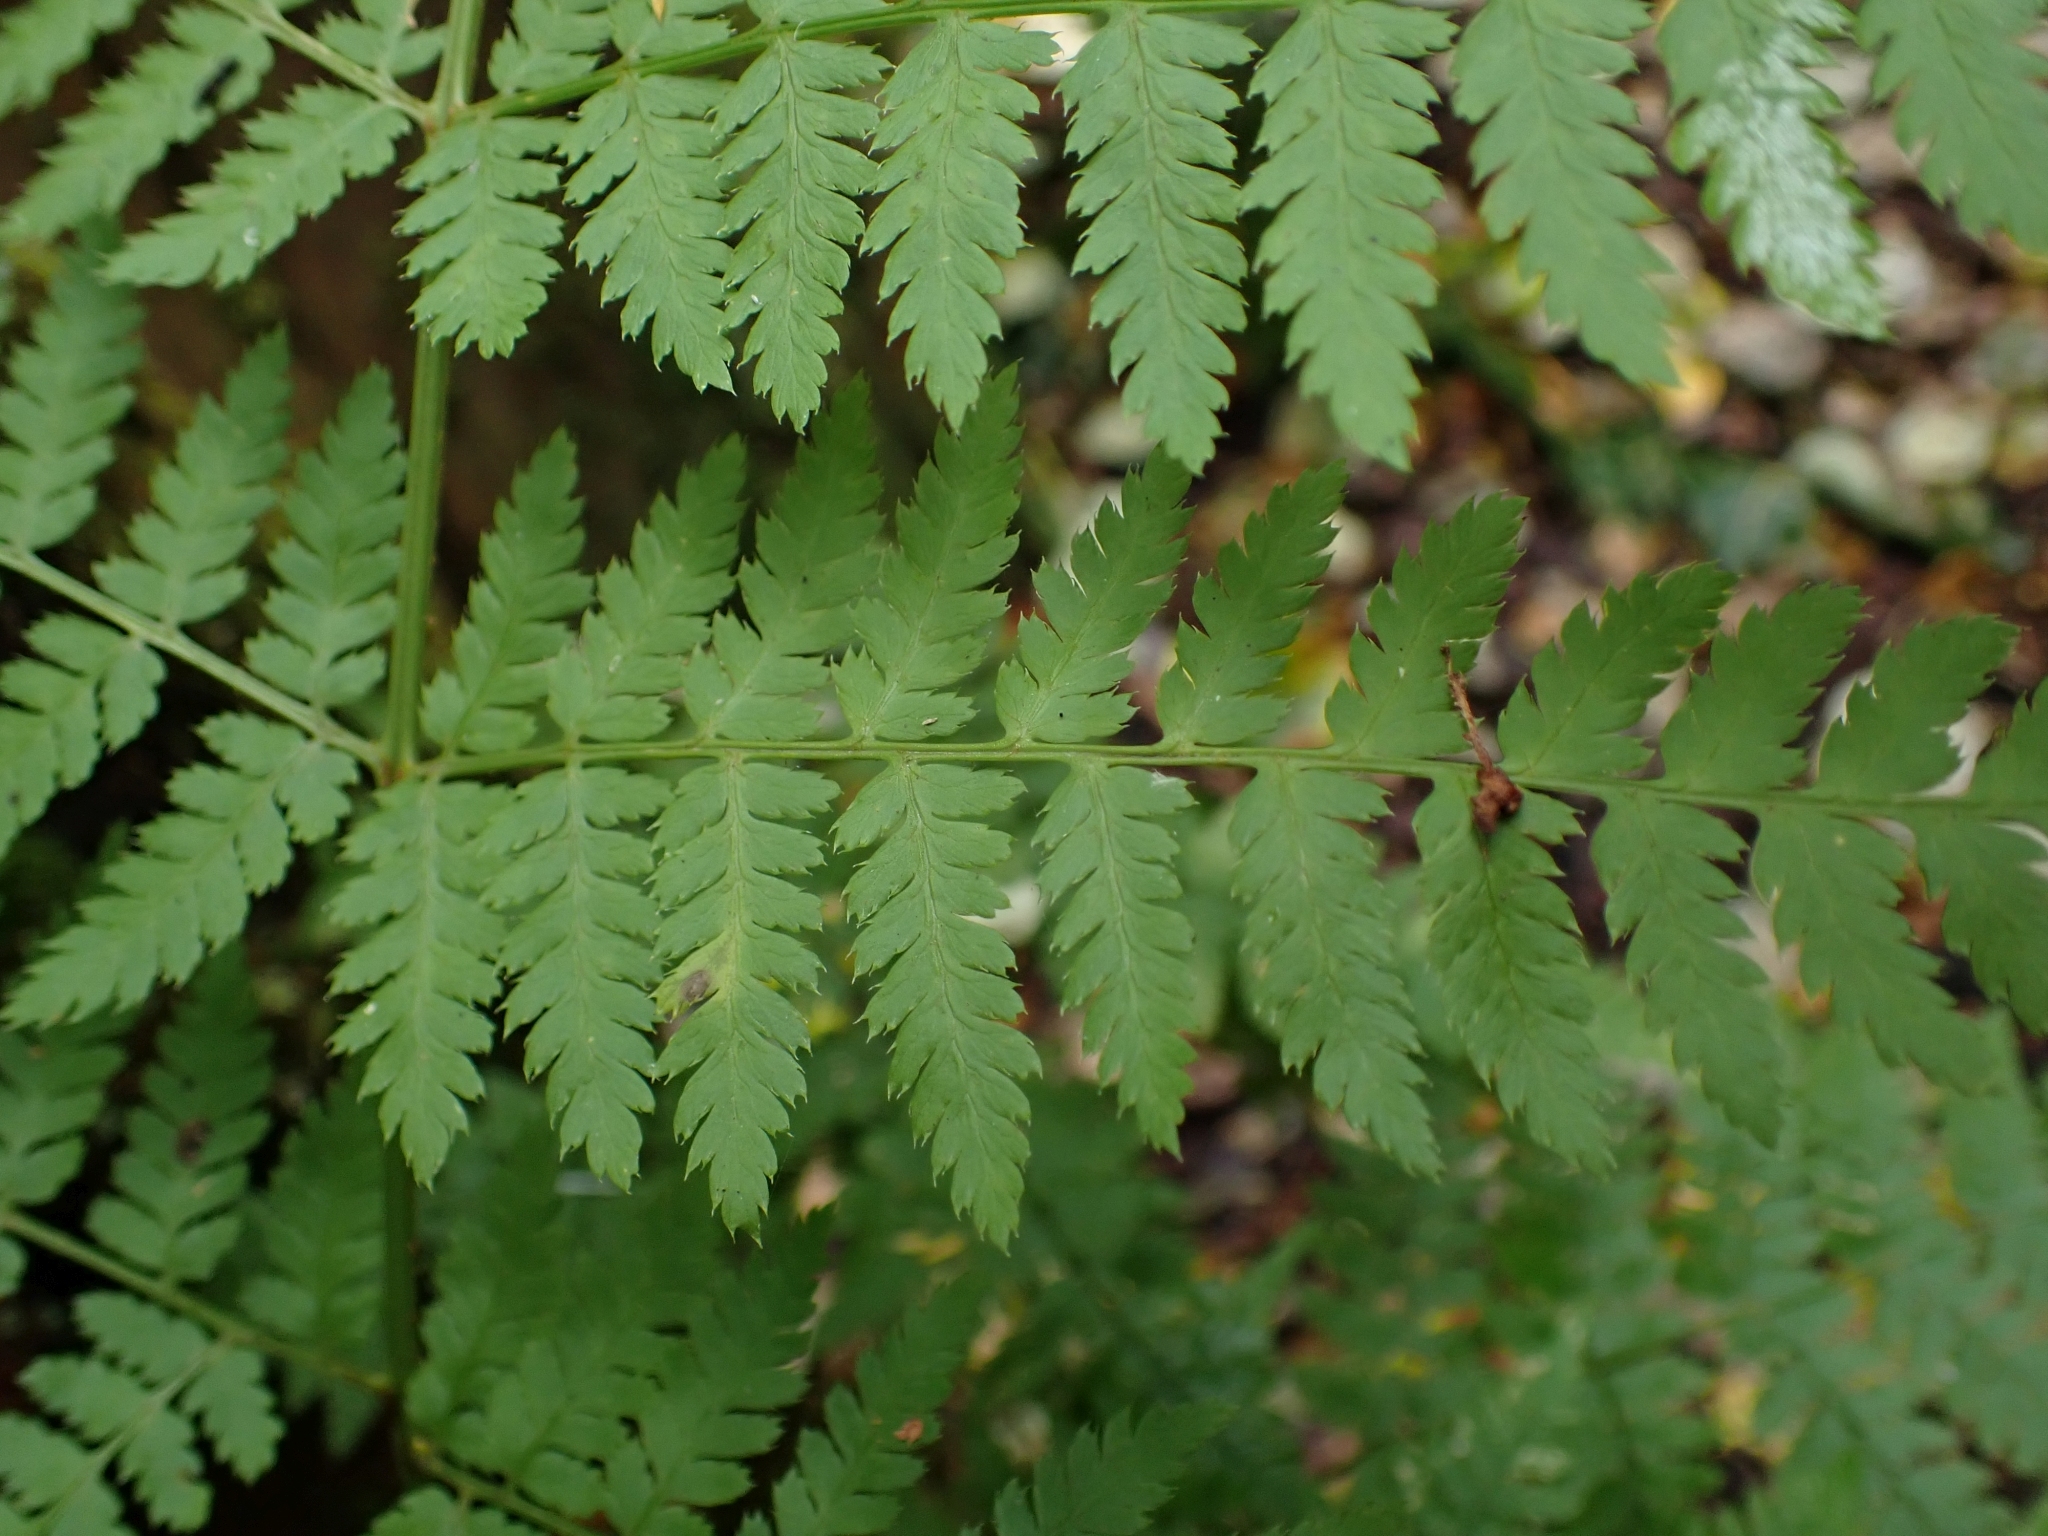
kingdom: Plantae
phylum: Tracheophyta
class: Polypodiopsida
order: Polypodiales
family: Dryopteridaceae
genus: Dryopteris
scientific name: Dryopteris expansa
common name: Northern buckler fern
